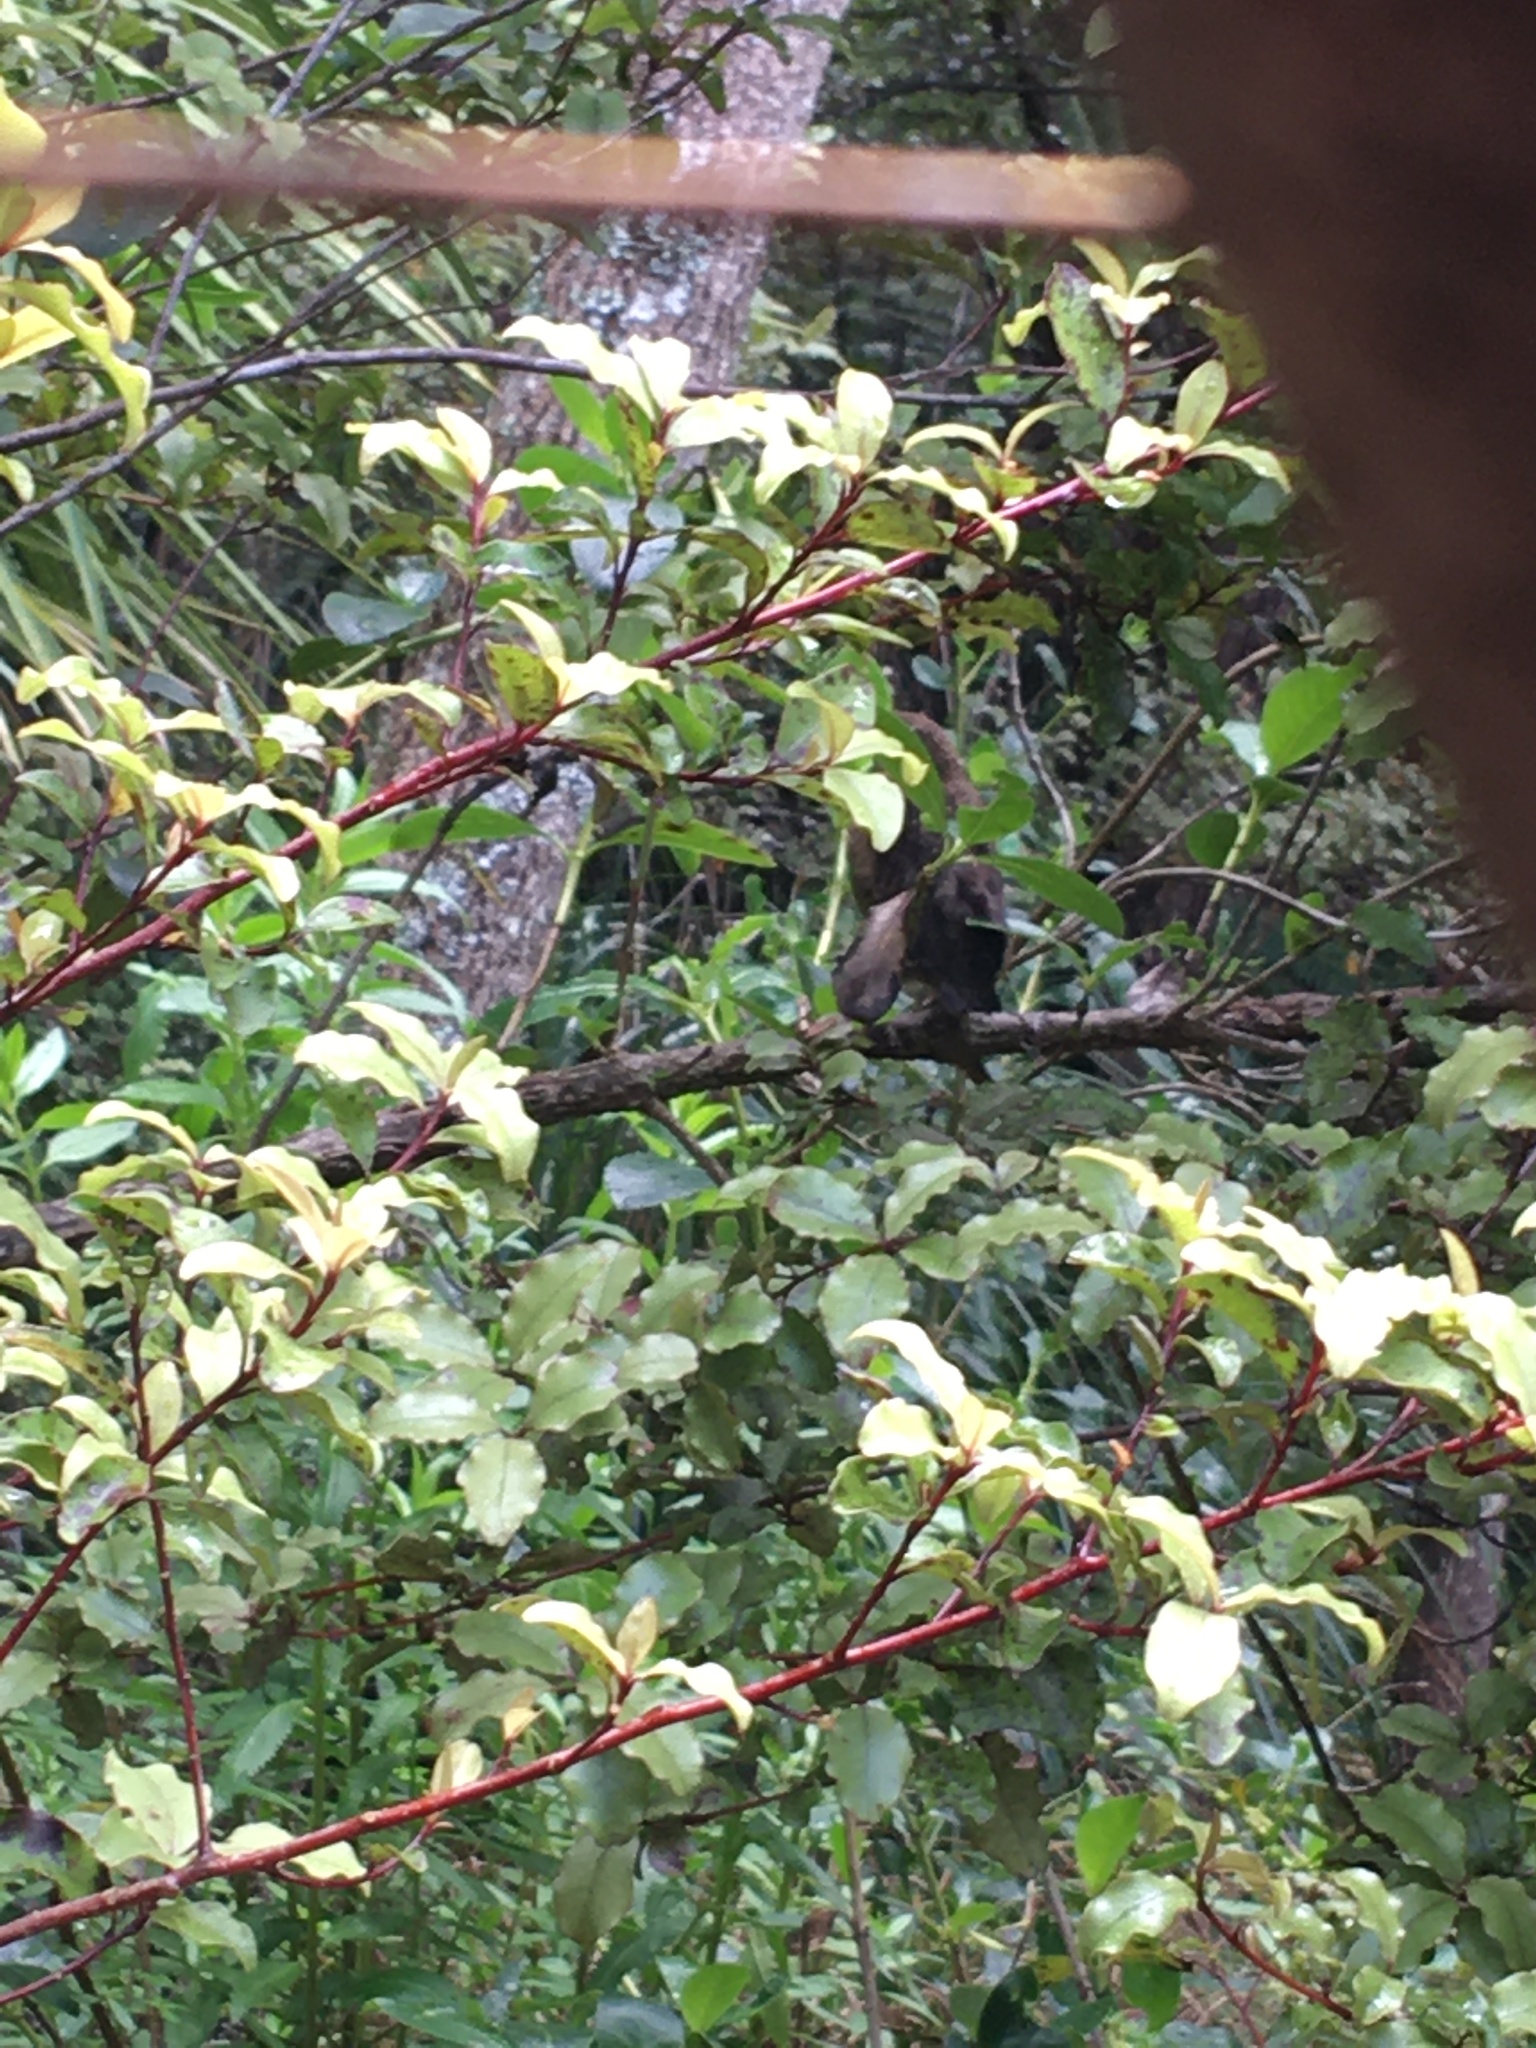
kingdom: Animalia
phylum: Chordata
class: Aves
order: Passeriformes
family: Turdidae
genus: Turdus
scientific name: Turdus merula
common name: Common blackbird
